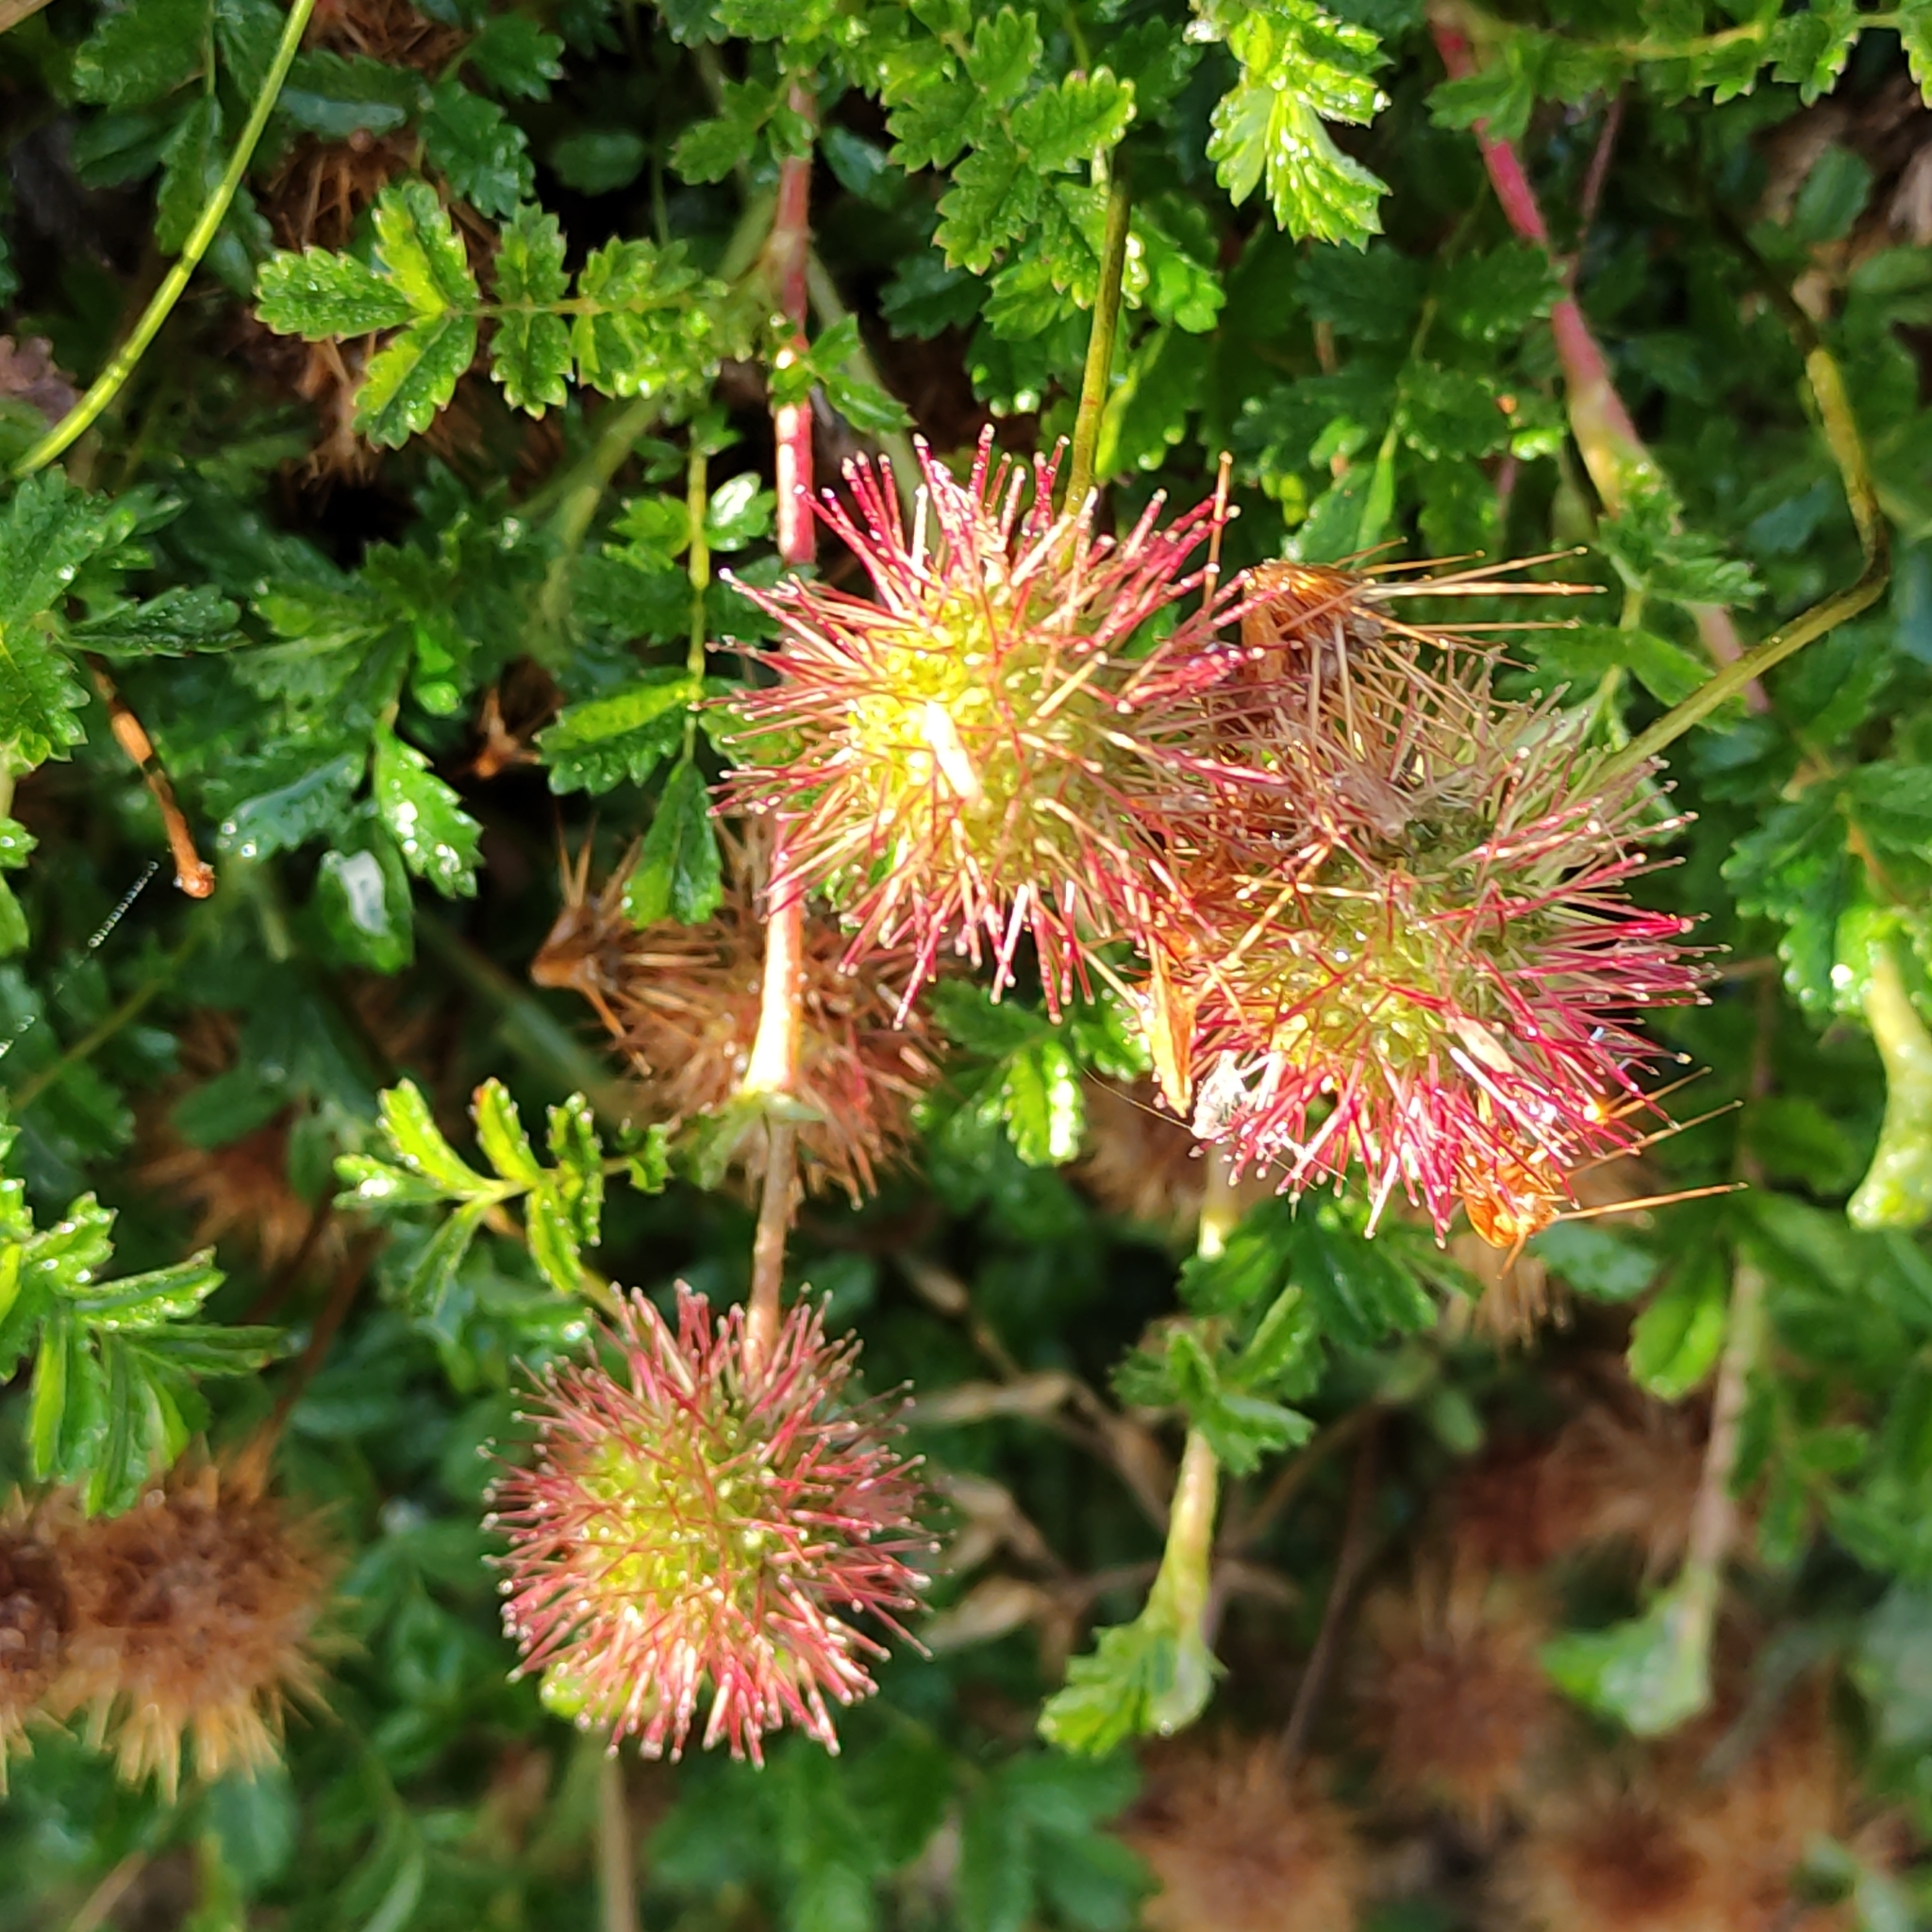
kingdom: Plantae
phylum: Tracheophyta
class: Magnoliopsida
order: Rosales
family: Rosaceae
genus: Acaena
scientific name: Acaena novae-zelandiae
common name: Pirri-pirri-bur
